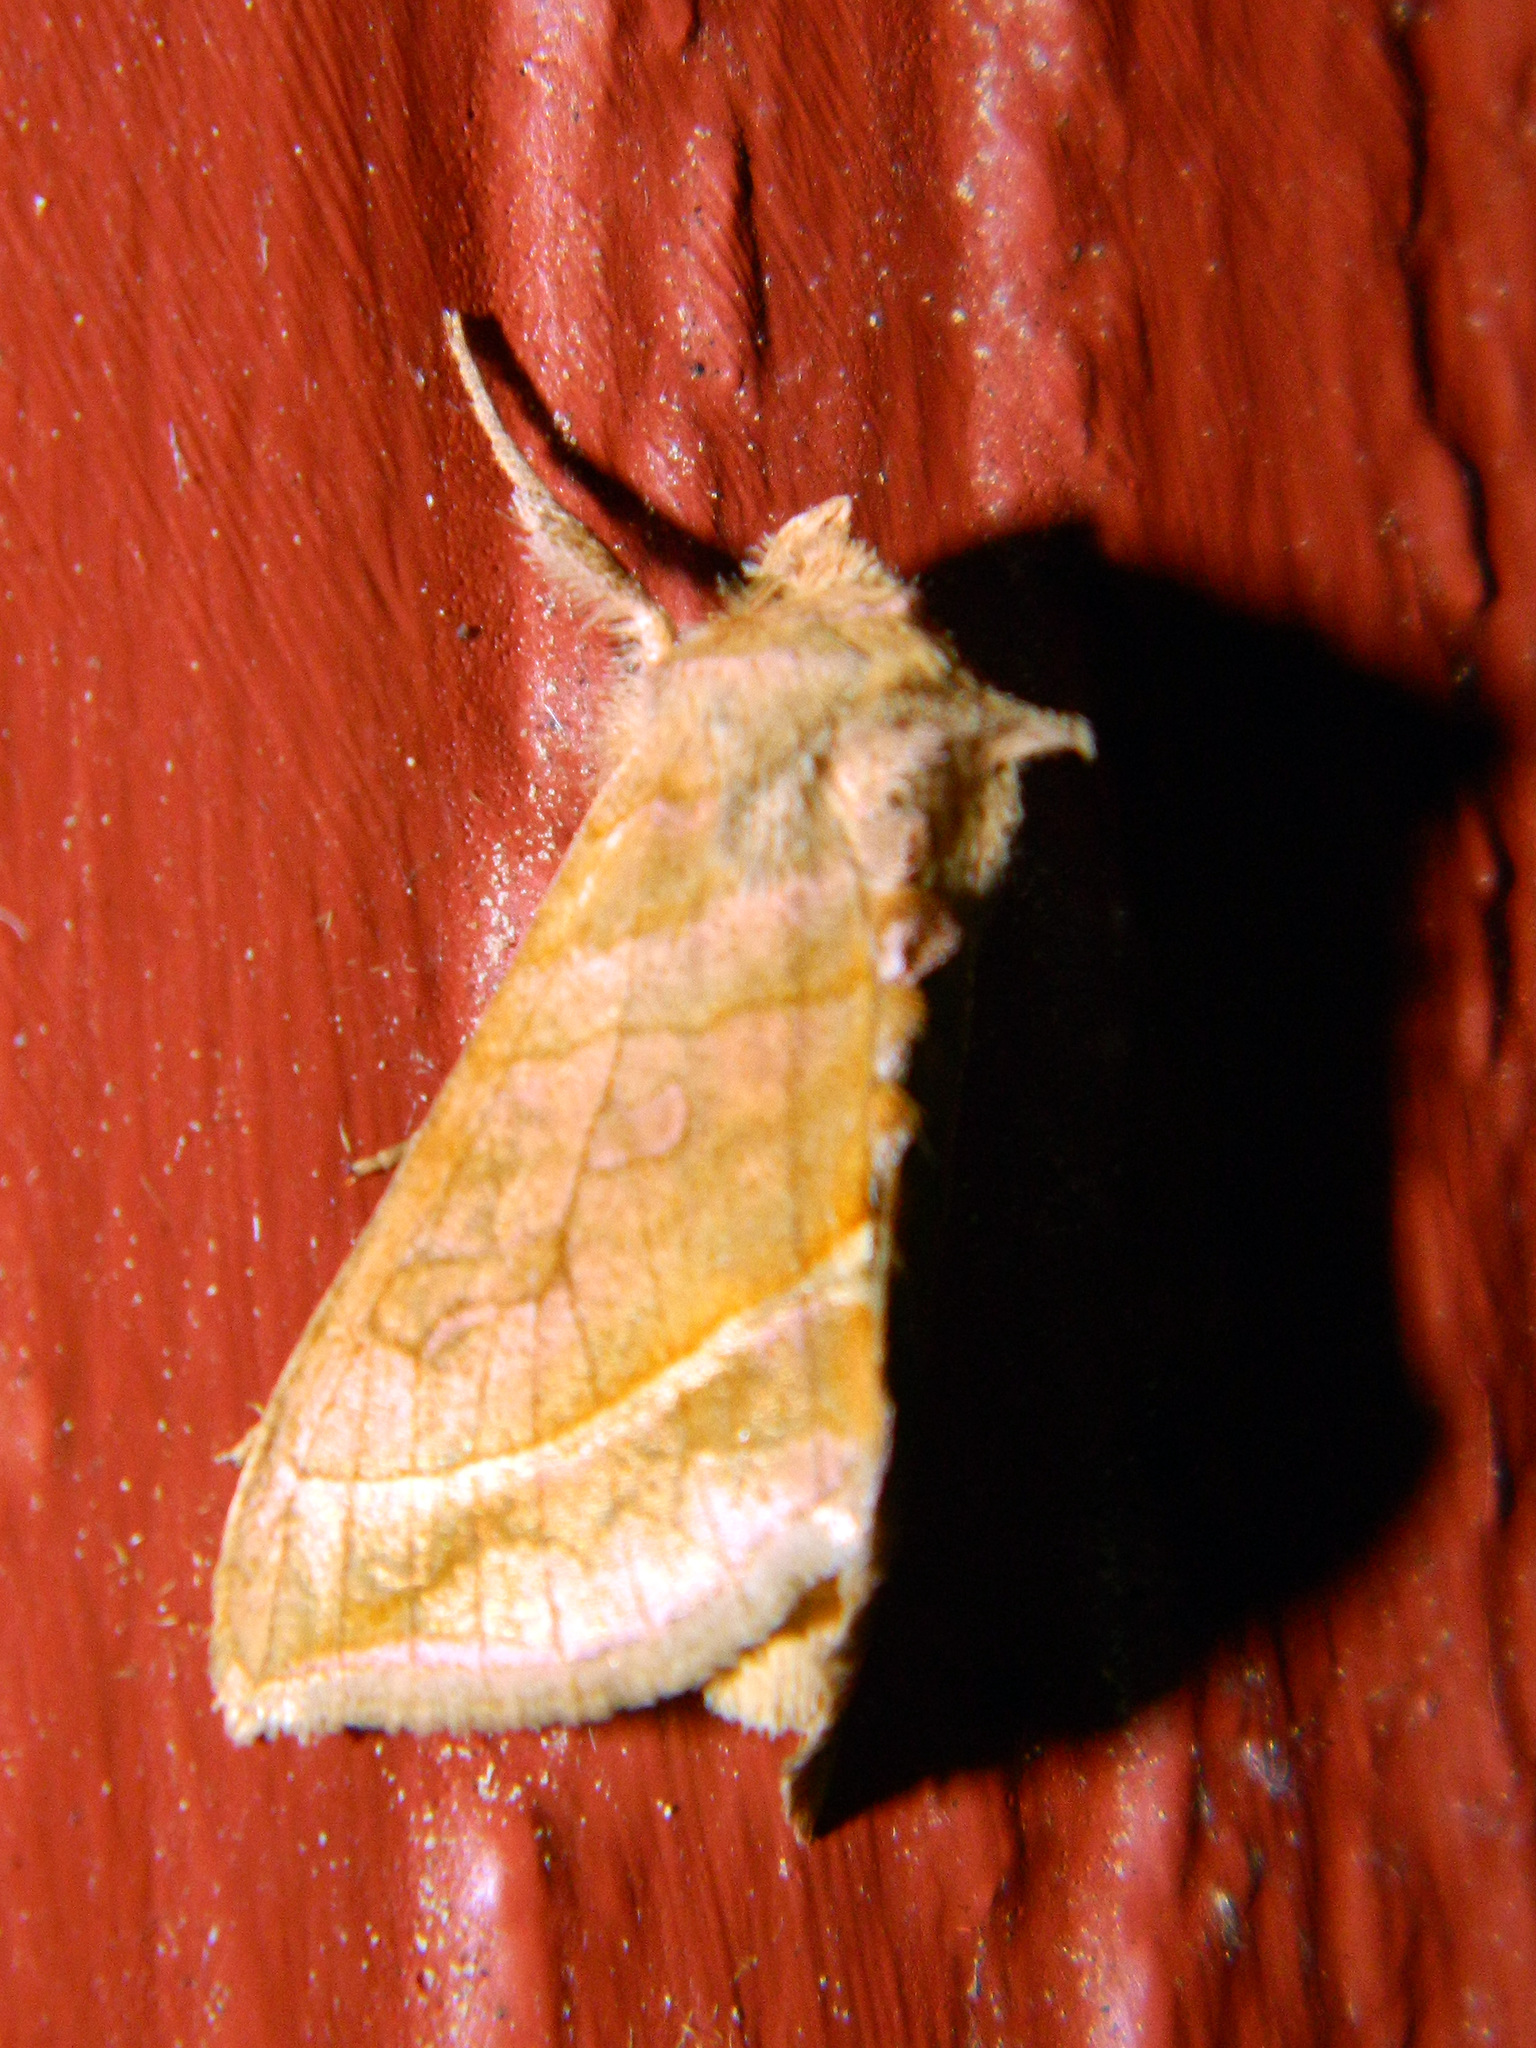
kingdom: Animalia
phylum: Arthropoda
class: Insecta
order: Lepidoptera
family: Noctuidae
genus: Diachrysia
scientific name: Diachrysia aereoides
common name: Dark-spotted looper moth
